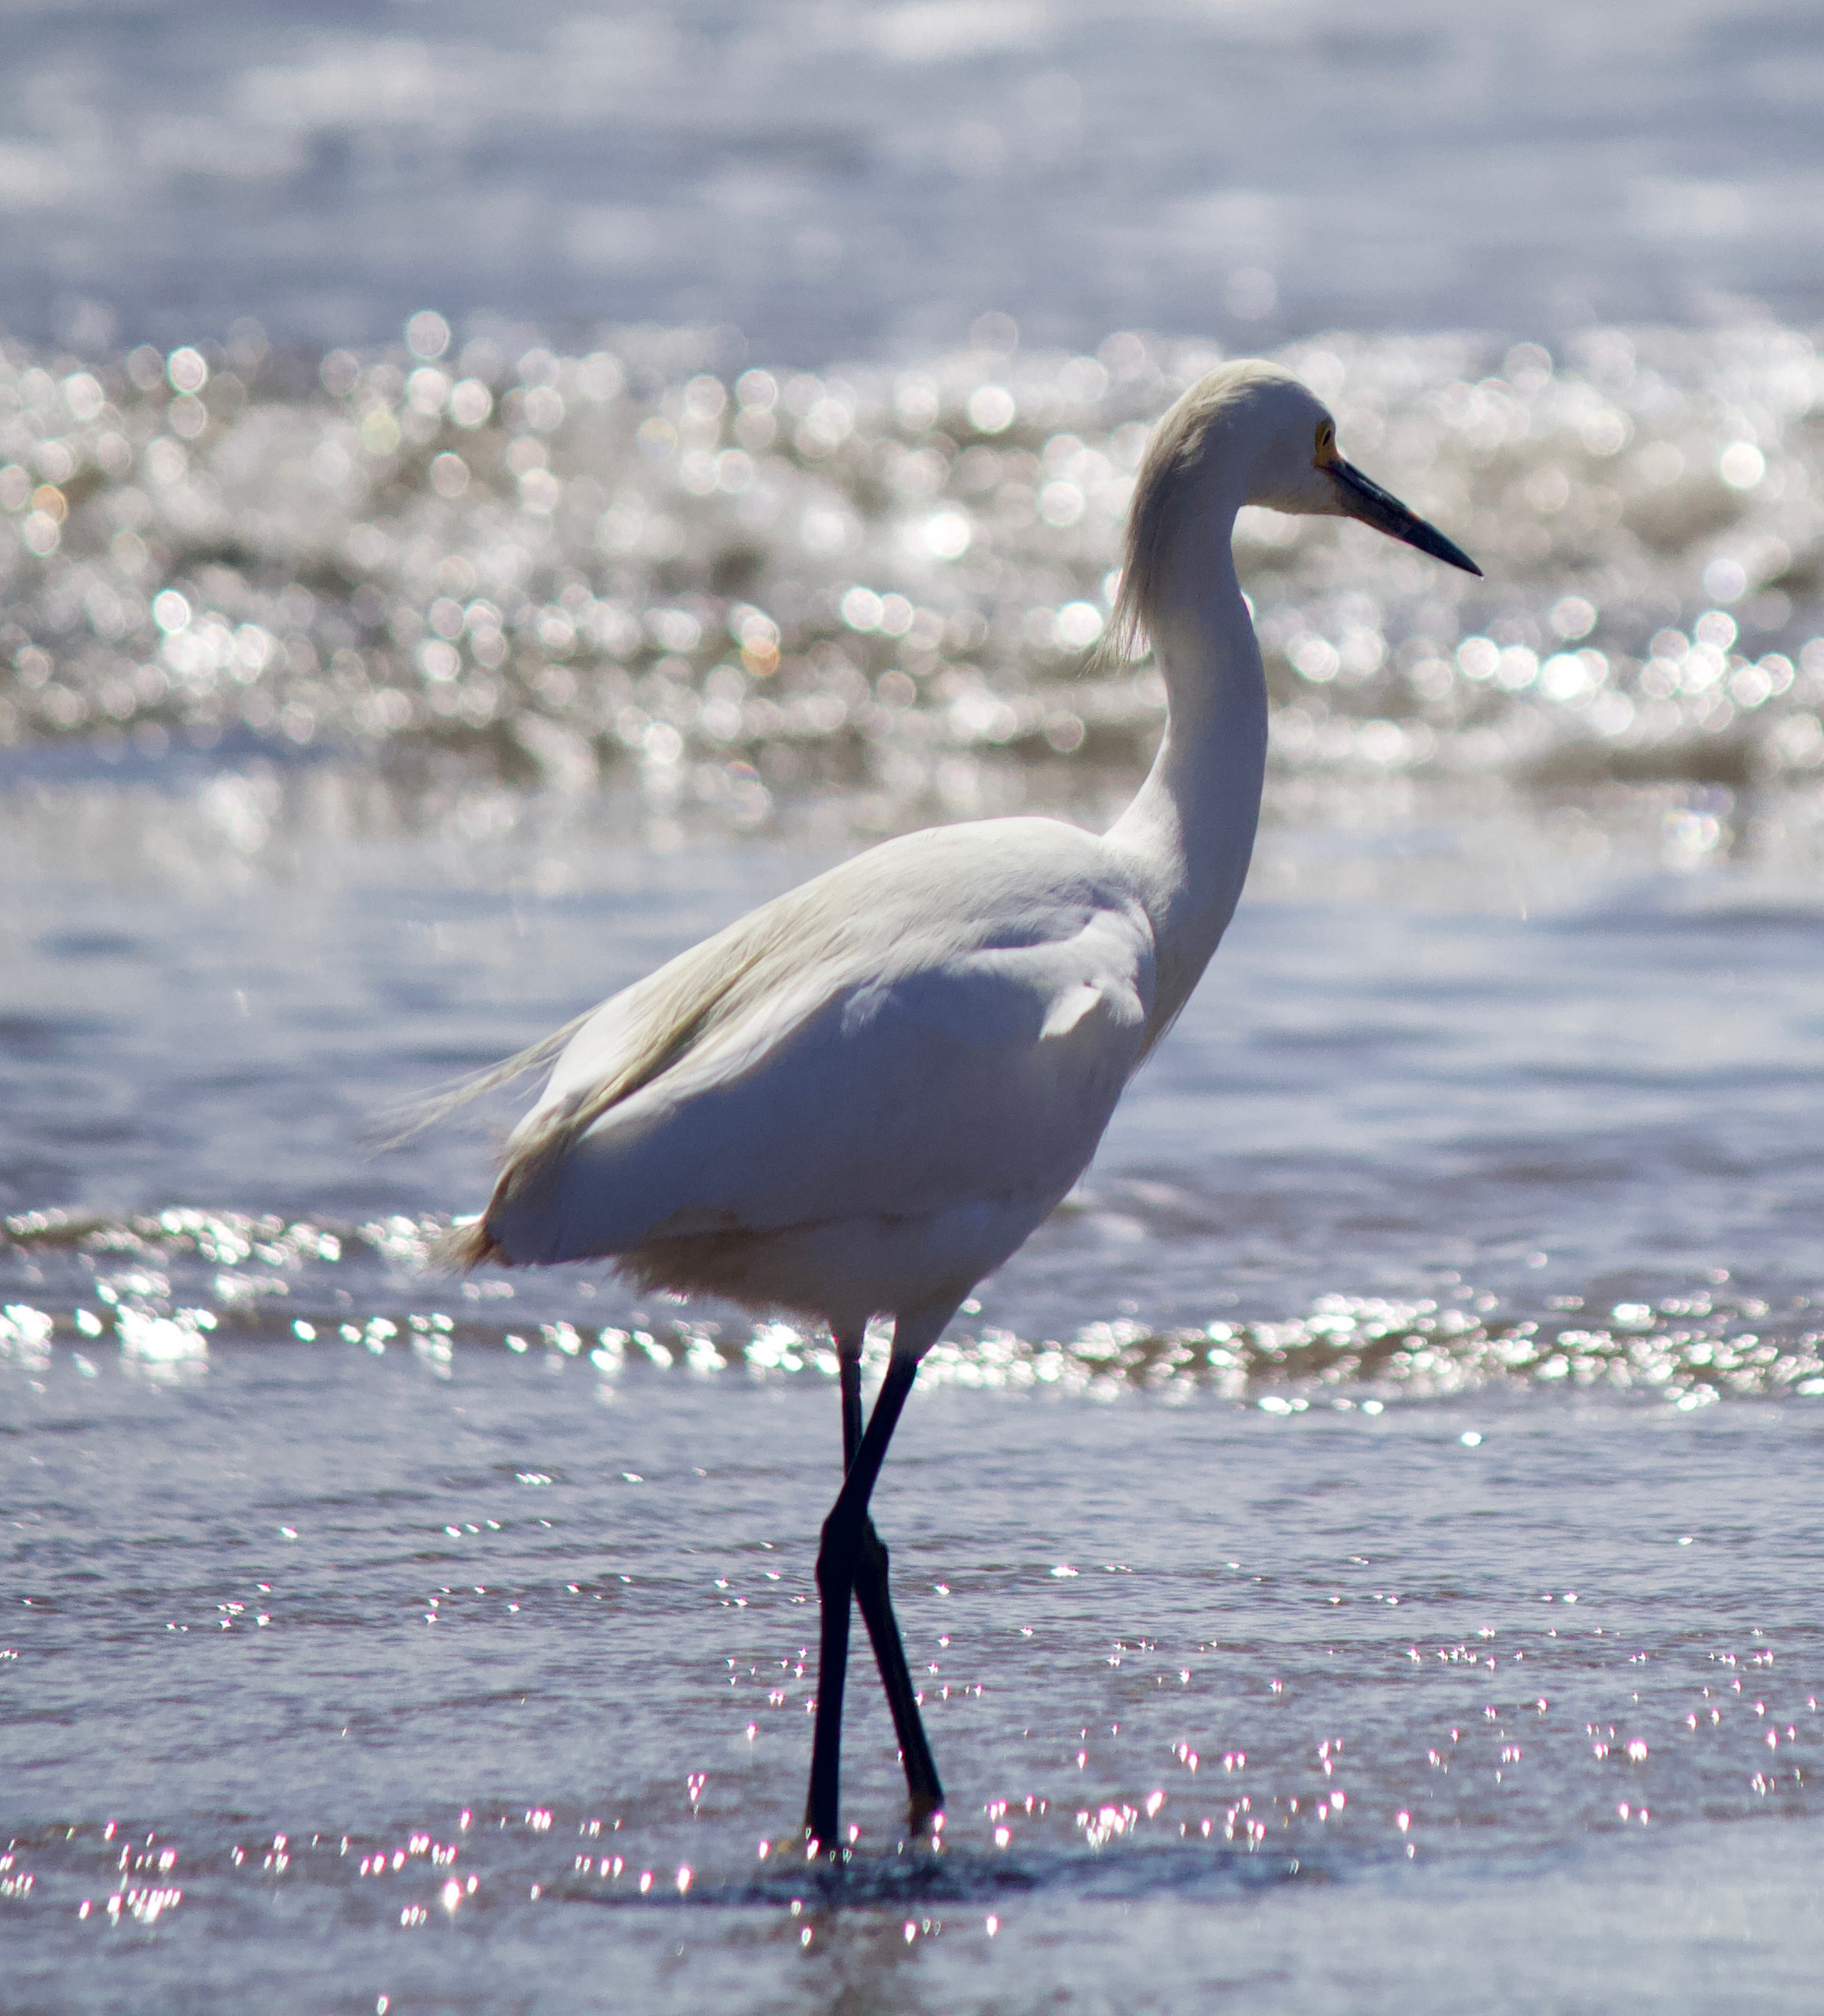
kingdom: Animalia
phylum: Chordata
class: Aves
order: Pelecaniformes
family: Ardeidae
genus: Egretta
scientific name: Egretta thula
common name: Snowy egret
